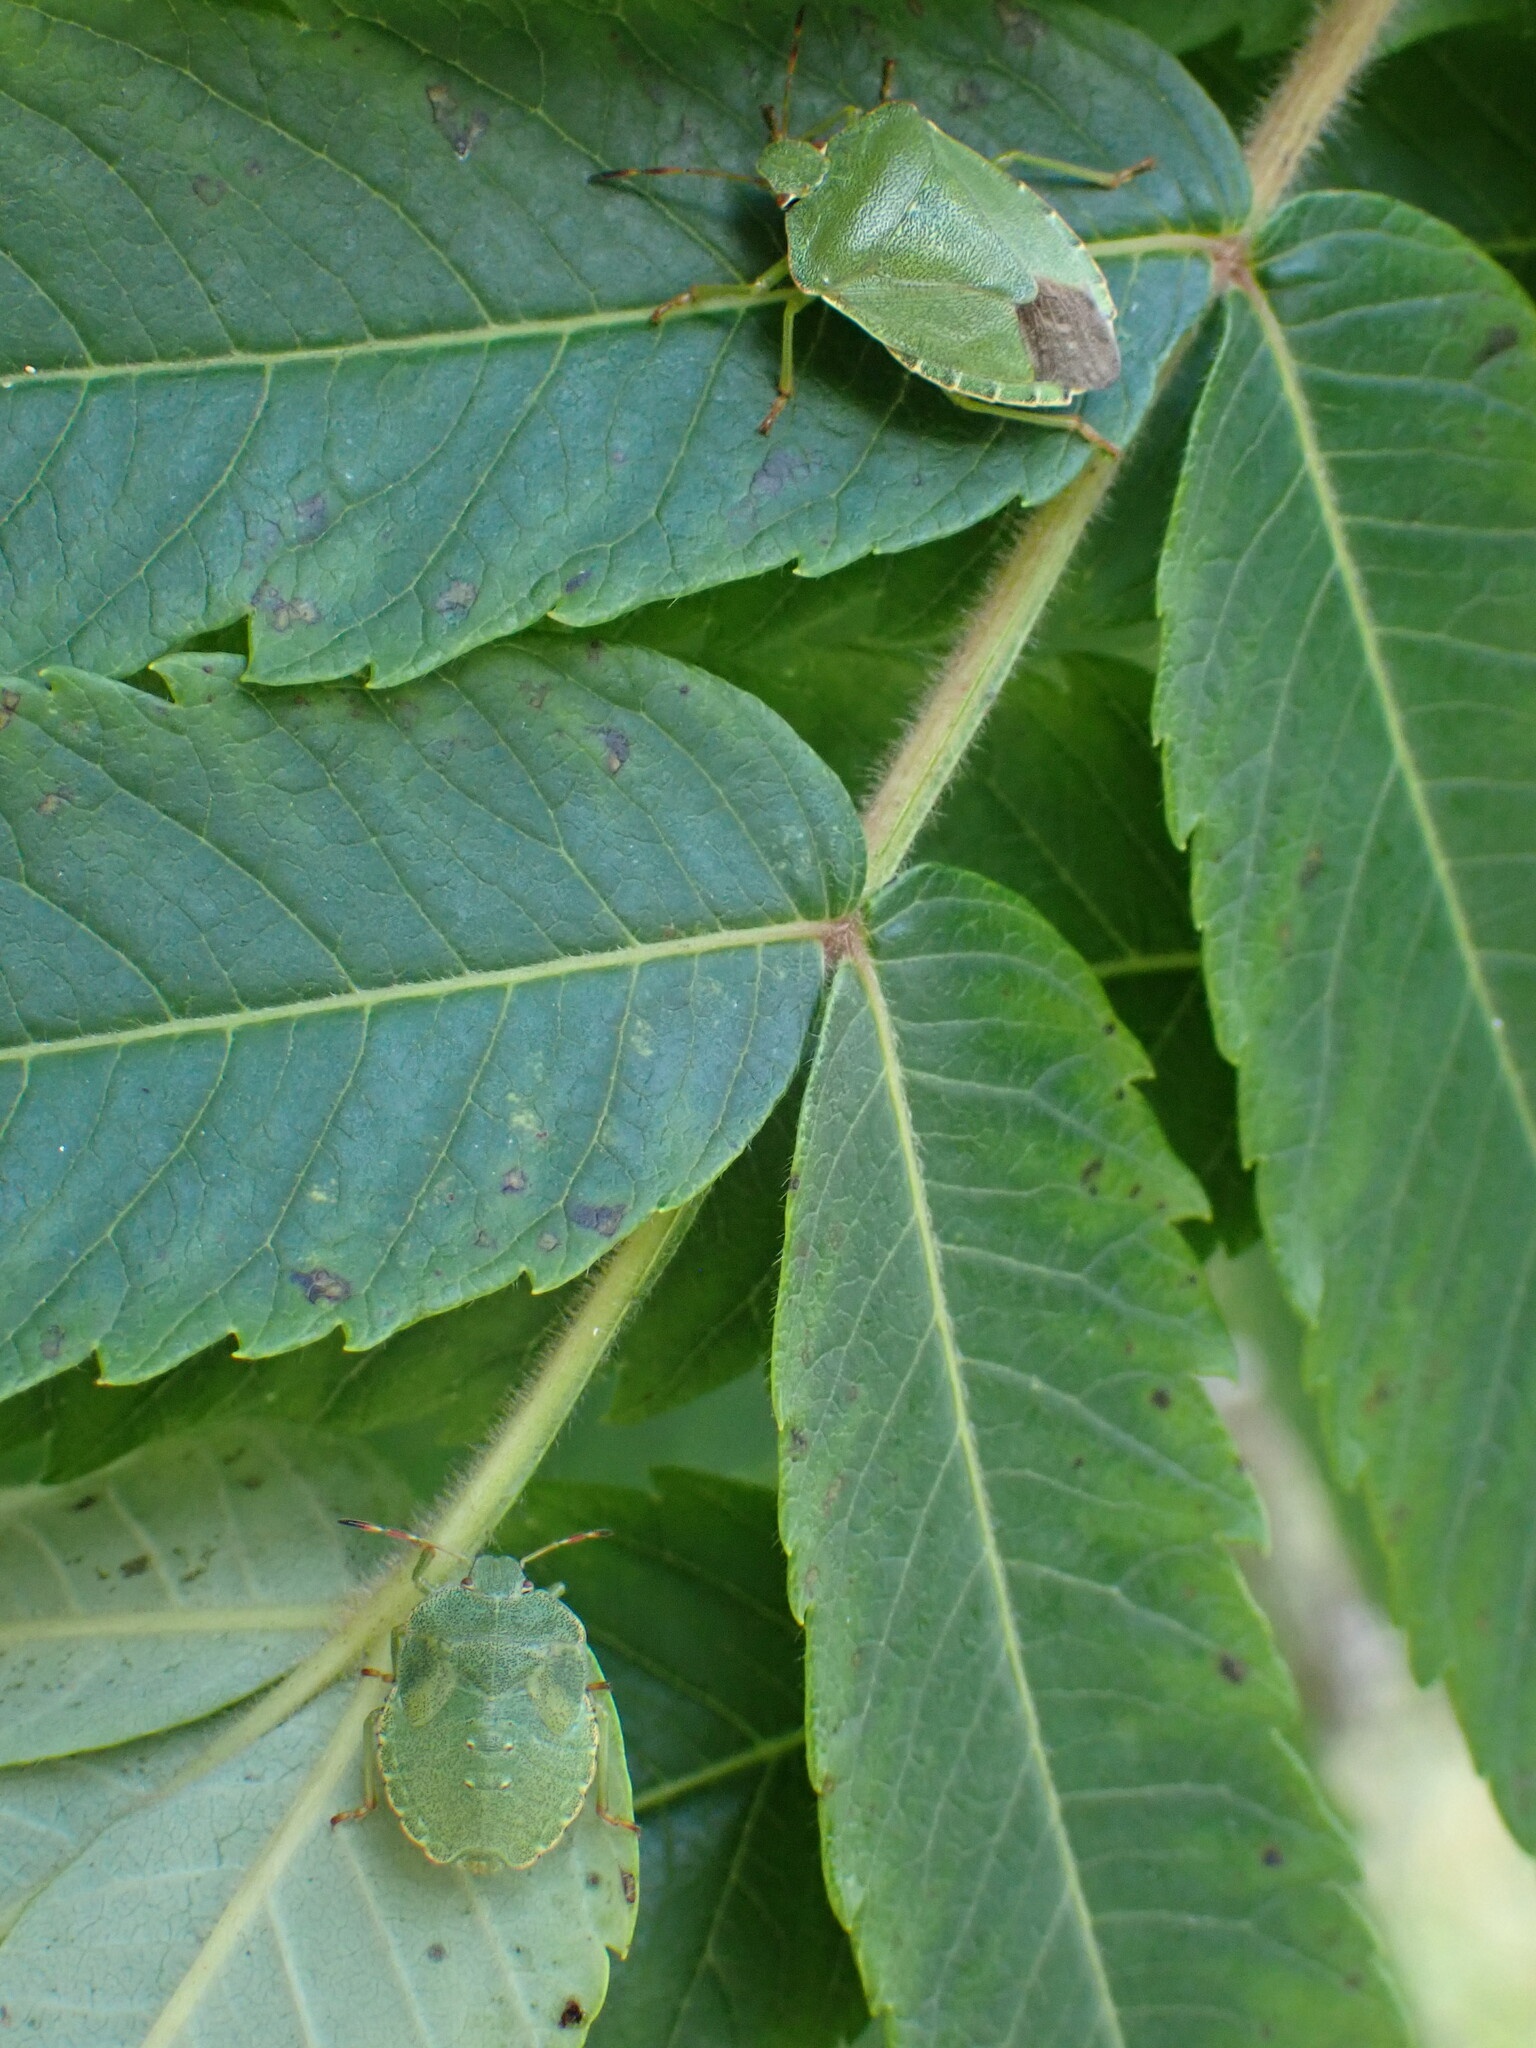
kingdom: Animalia
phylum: Arthropoda
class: Insecta
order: Hemiptera
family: Pentatomidae
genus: Palomena
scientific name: Palomena prasina
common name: Green shieldbug
